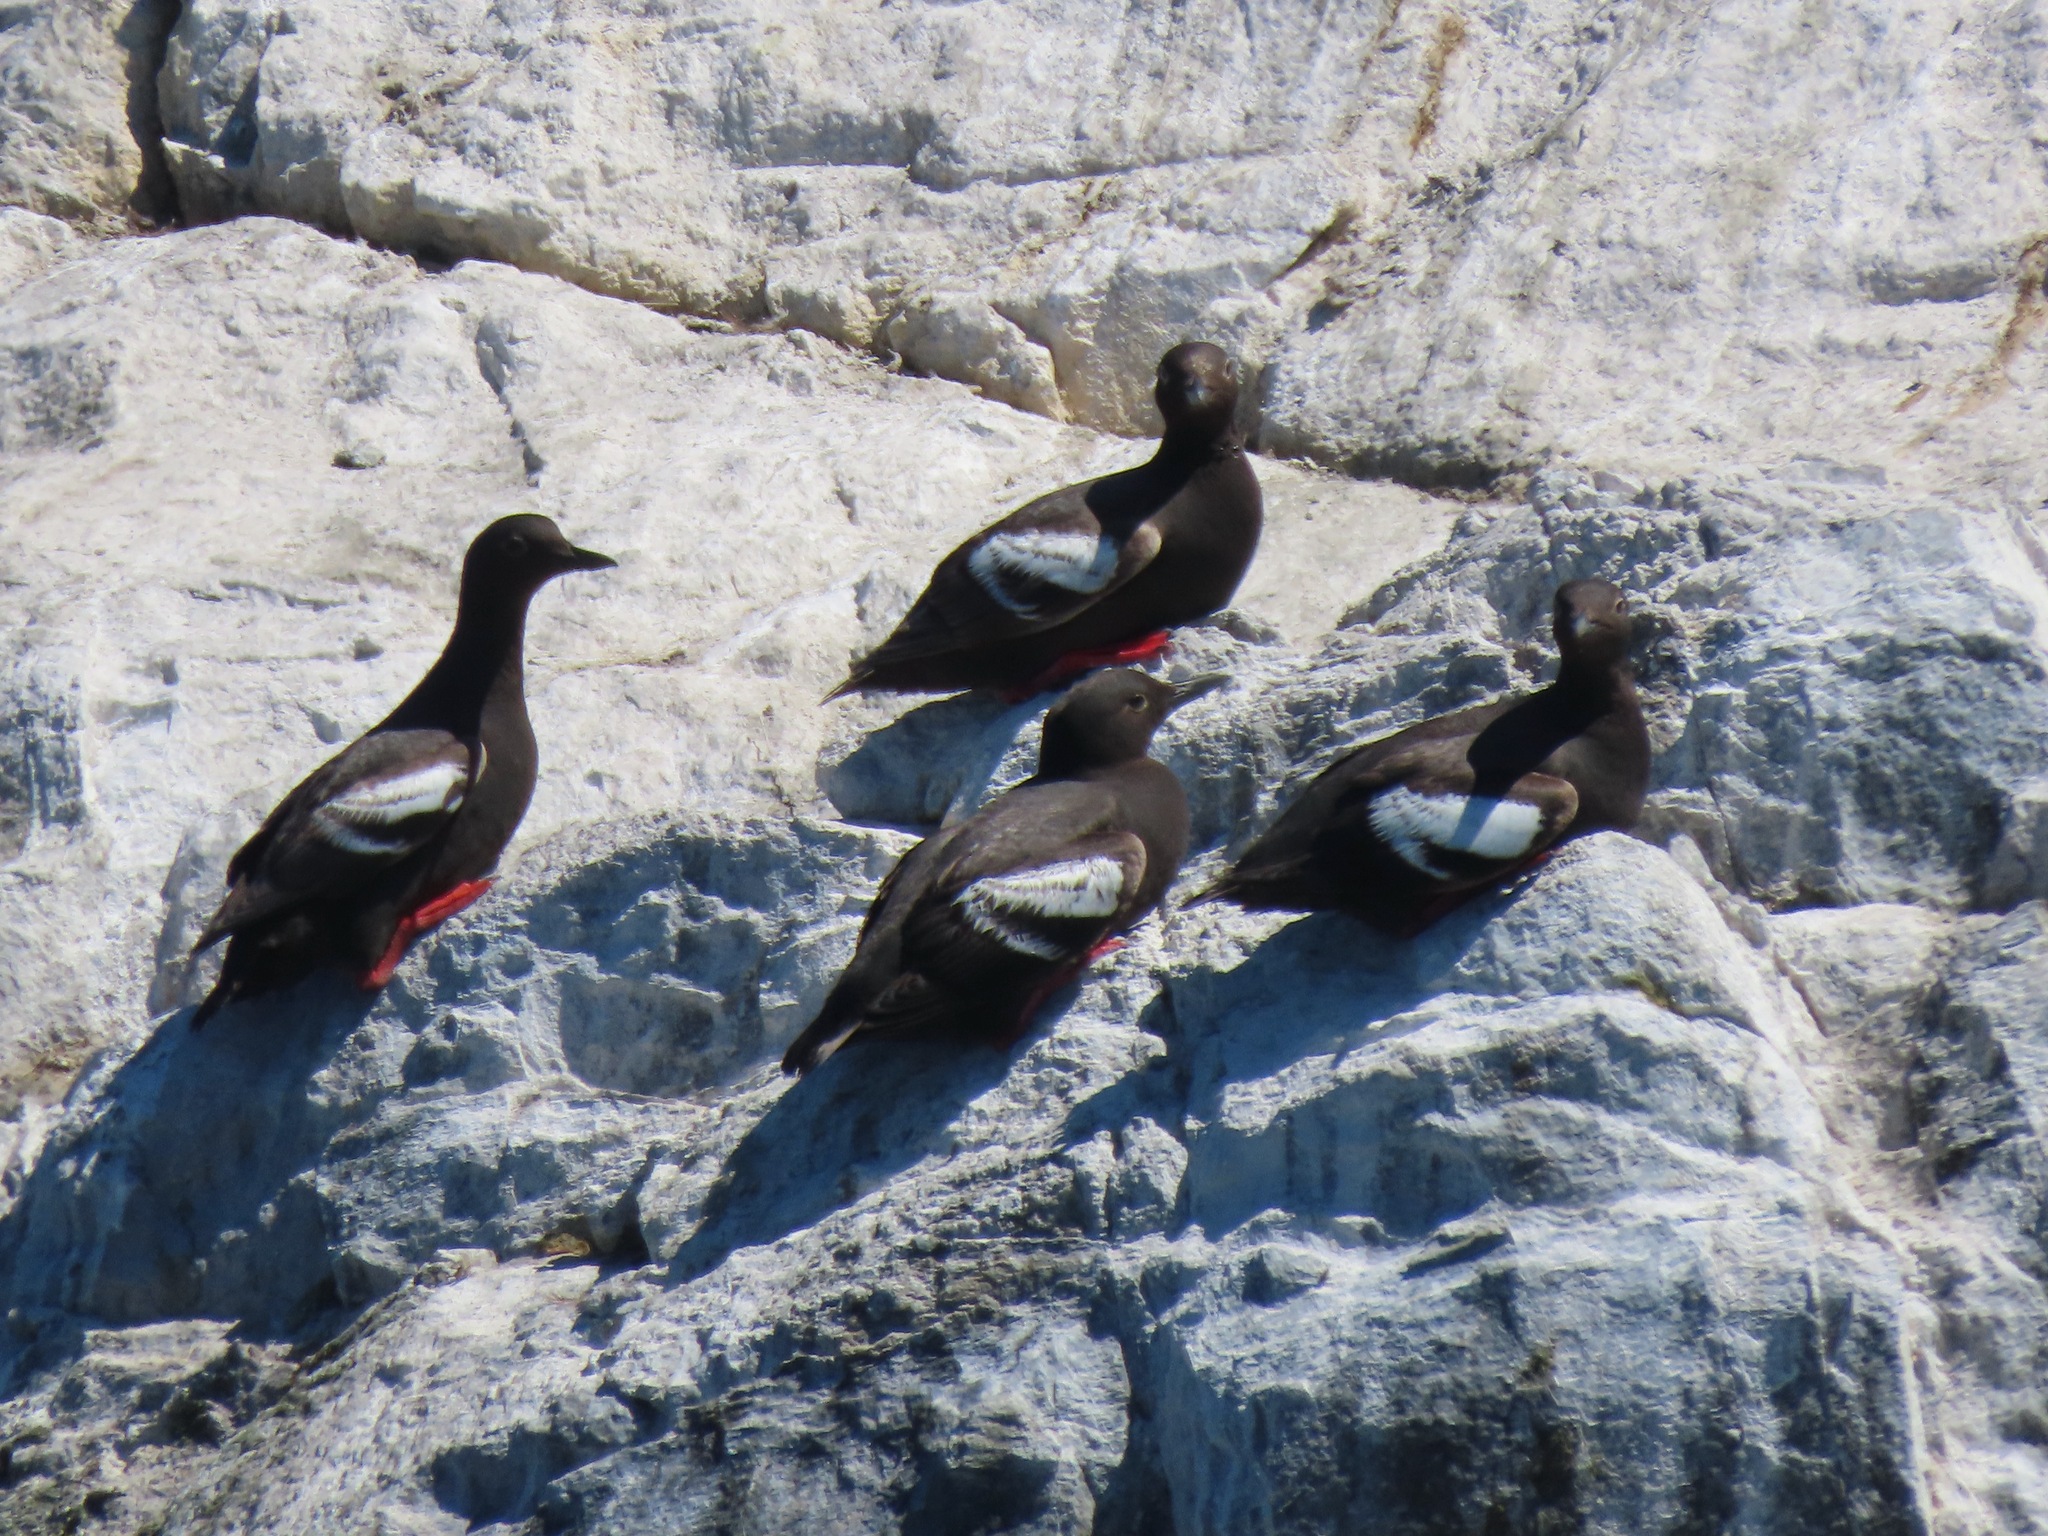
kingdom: Animalia
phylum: Chordata
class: Aves
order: Charadriiformes
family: Alcidae
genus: Cepphus
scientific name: Cepphus columba
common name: Pigeon guillemot
